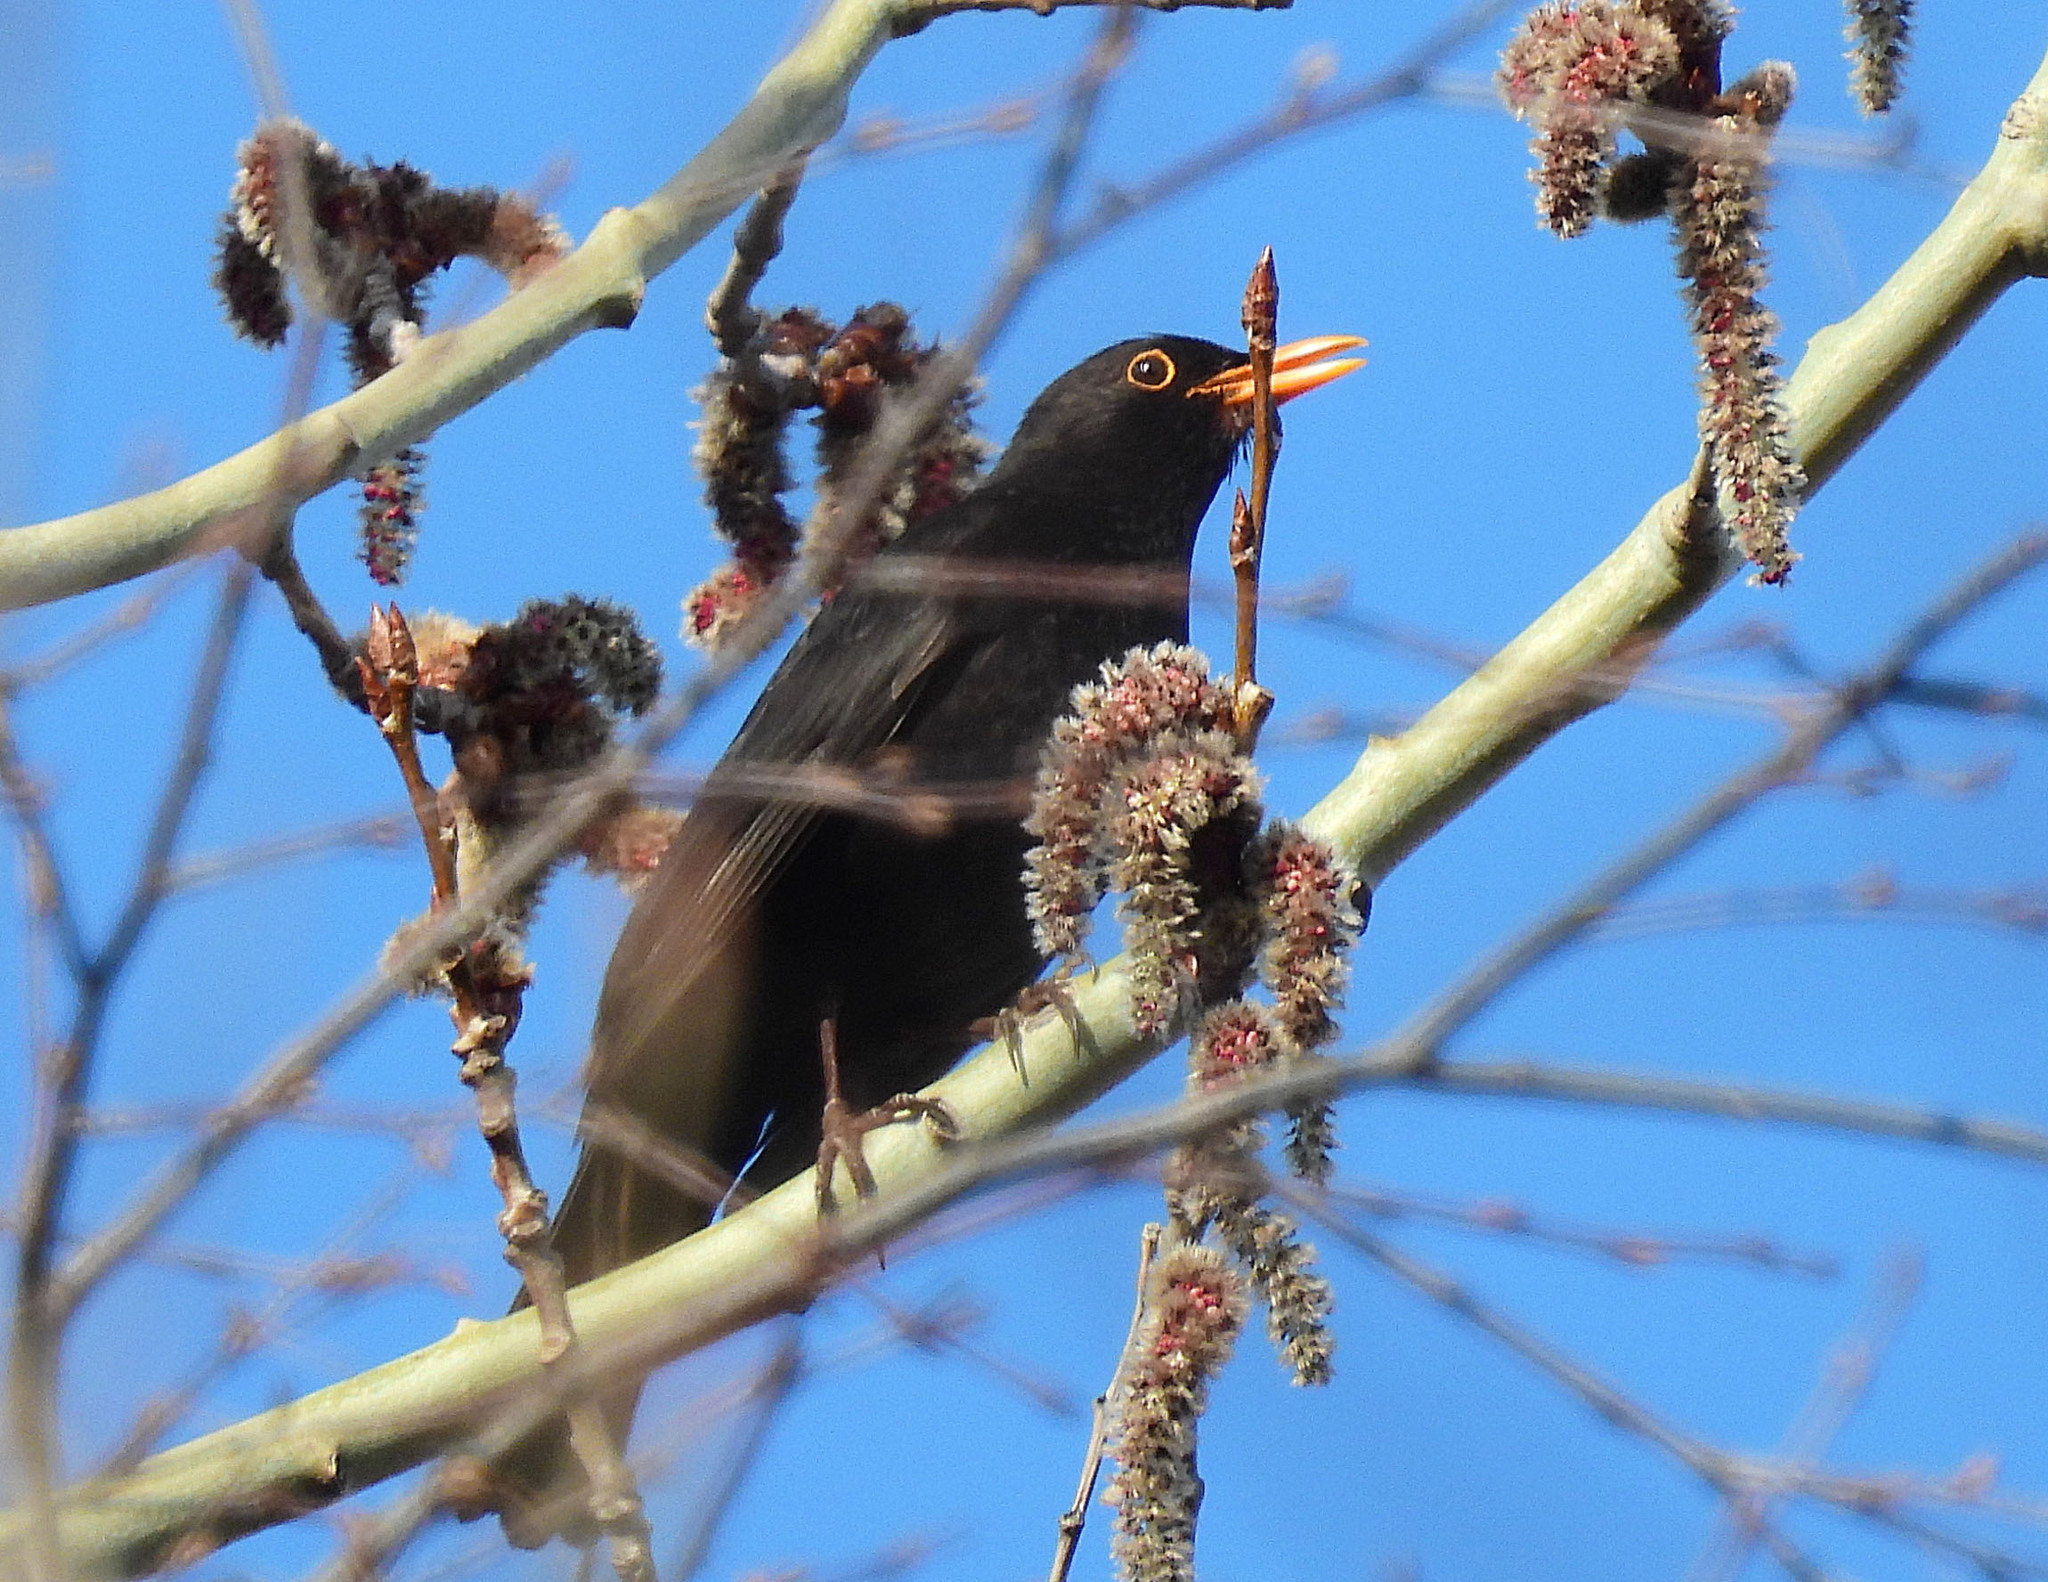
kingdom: Animalia
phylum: Chordata
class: Aves
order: Passeriformes
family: Turdidae
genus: Turdus
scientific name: Turdus merula
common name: Common blackbird
